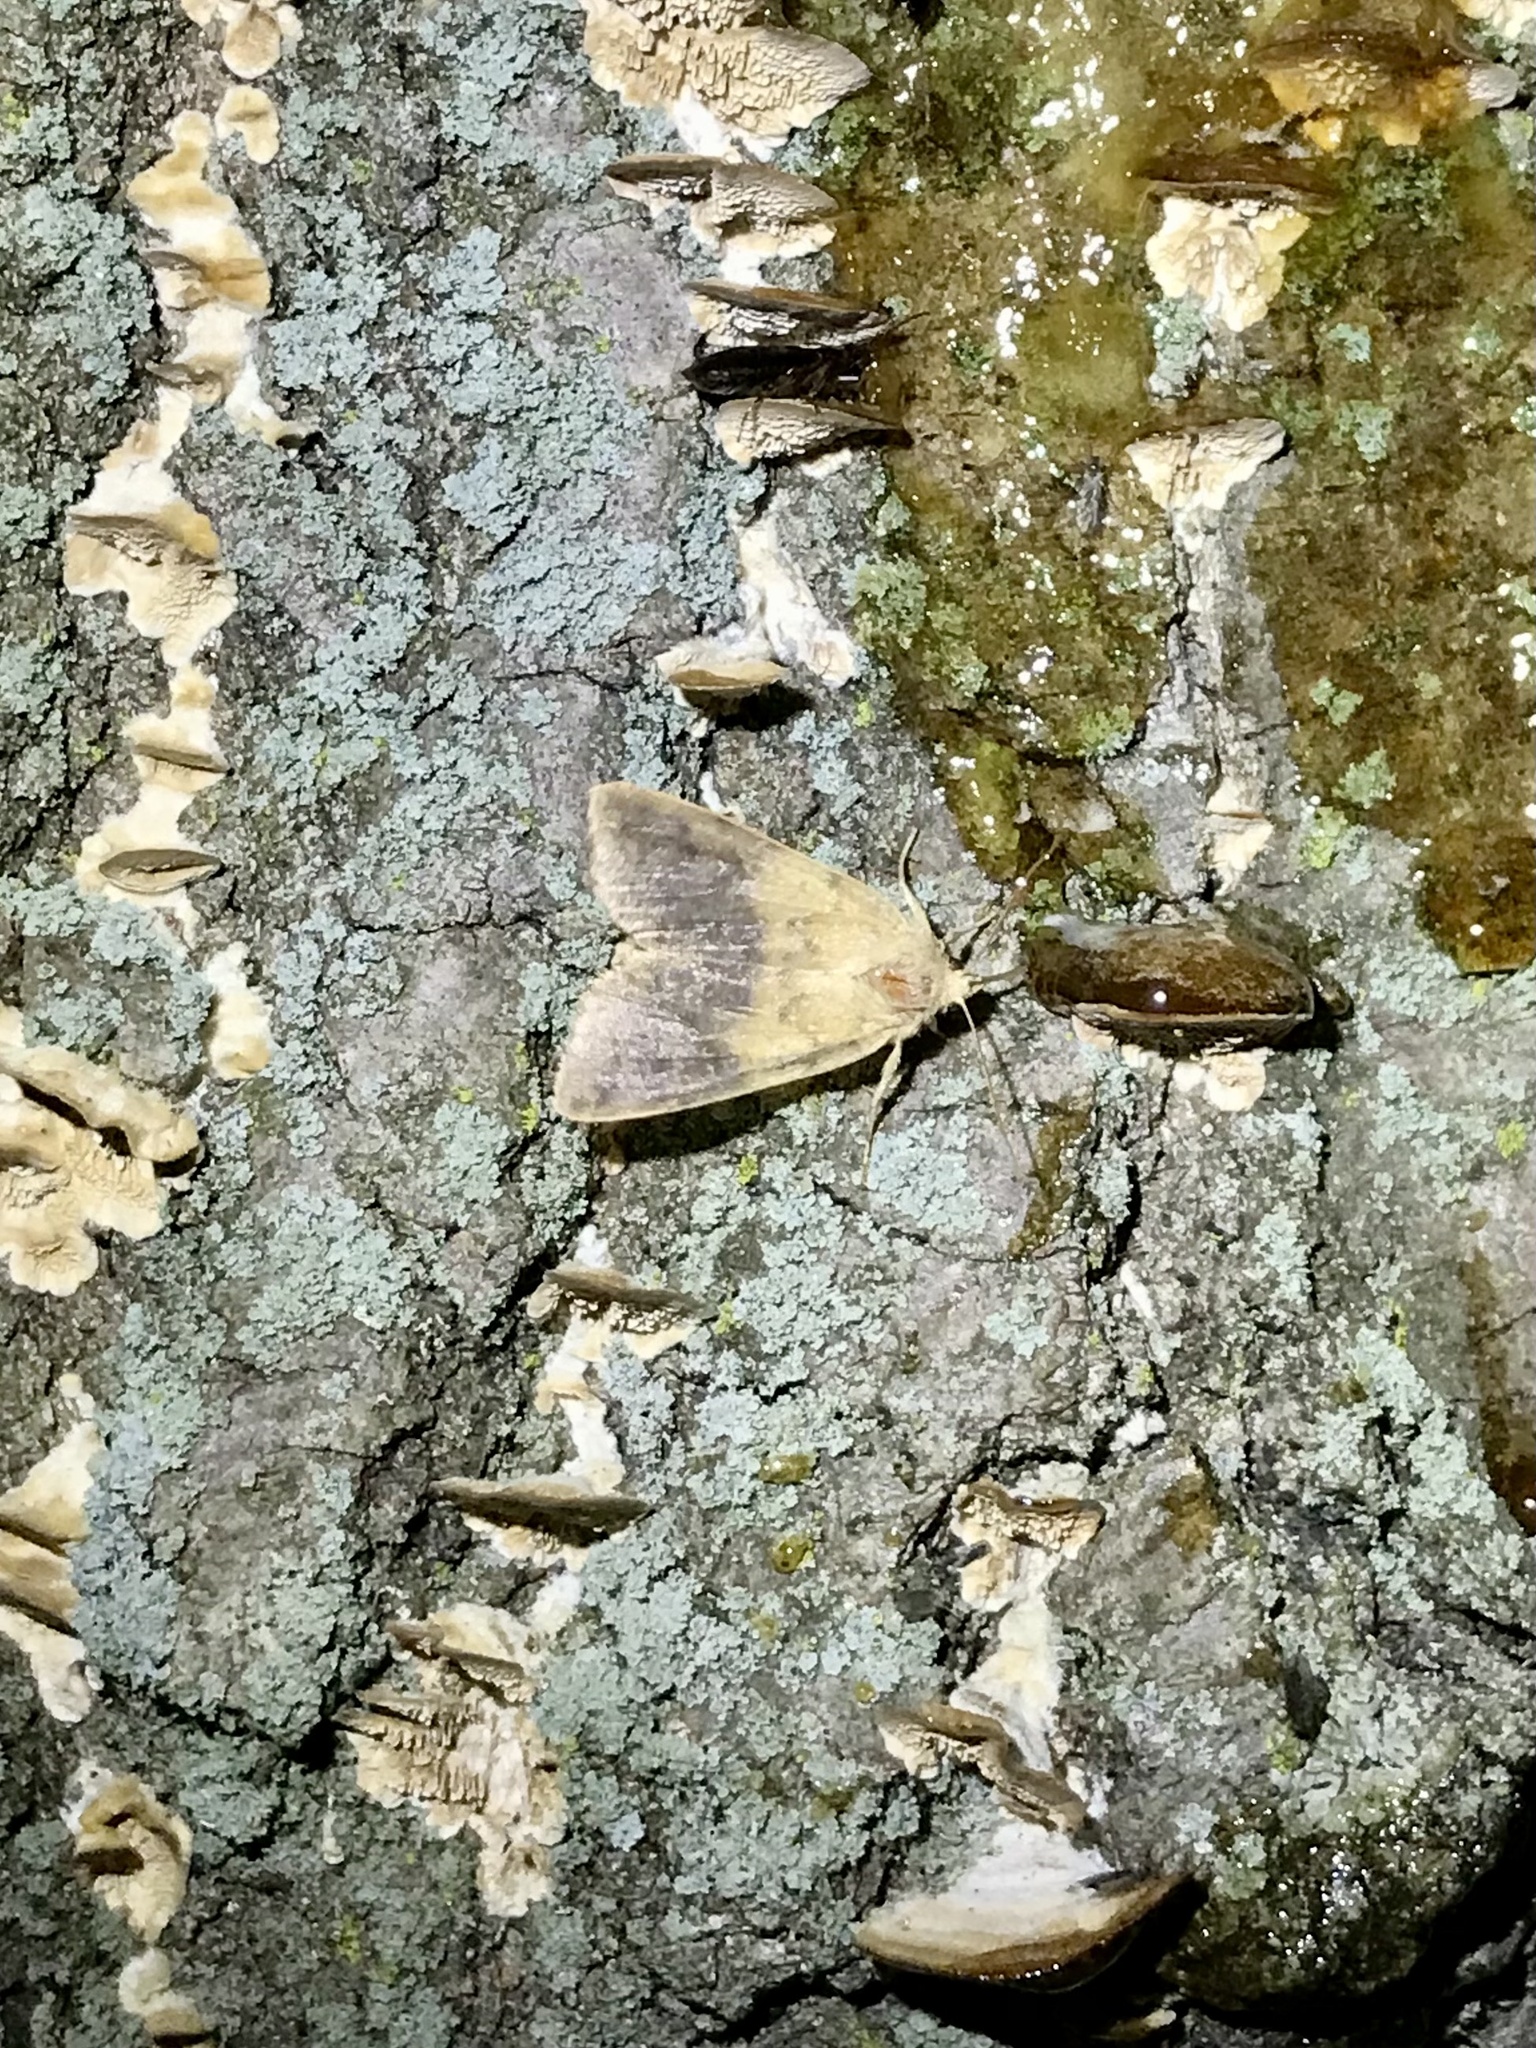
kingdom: Animalia
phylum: Arthropoda
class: Insecta
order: Lepidoptera
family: Noctuidae
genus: Agrochola
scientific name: Agrochola bicolorago
